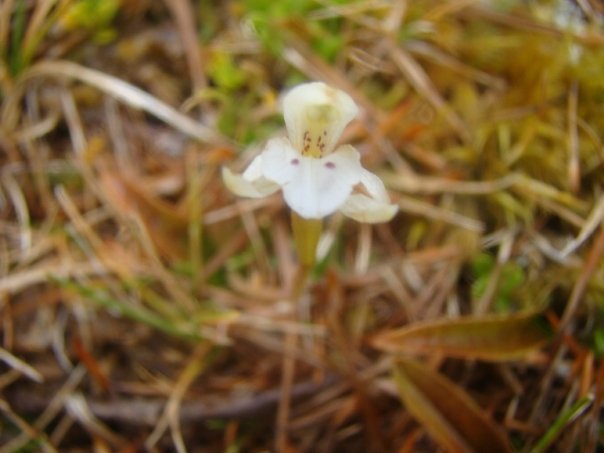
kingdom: Plantae
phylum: Tracheophyta
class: Liliopsida
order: Asparagales
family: Orchidaceae
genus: Aporostylis
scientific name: Aporostylis bifolia
